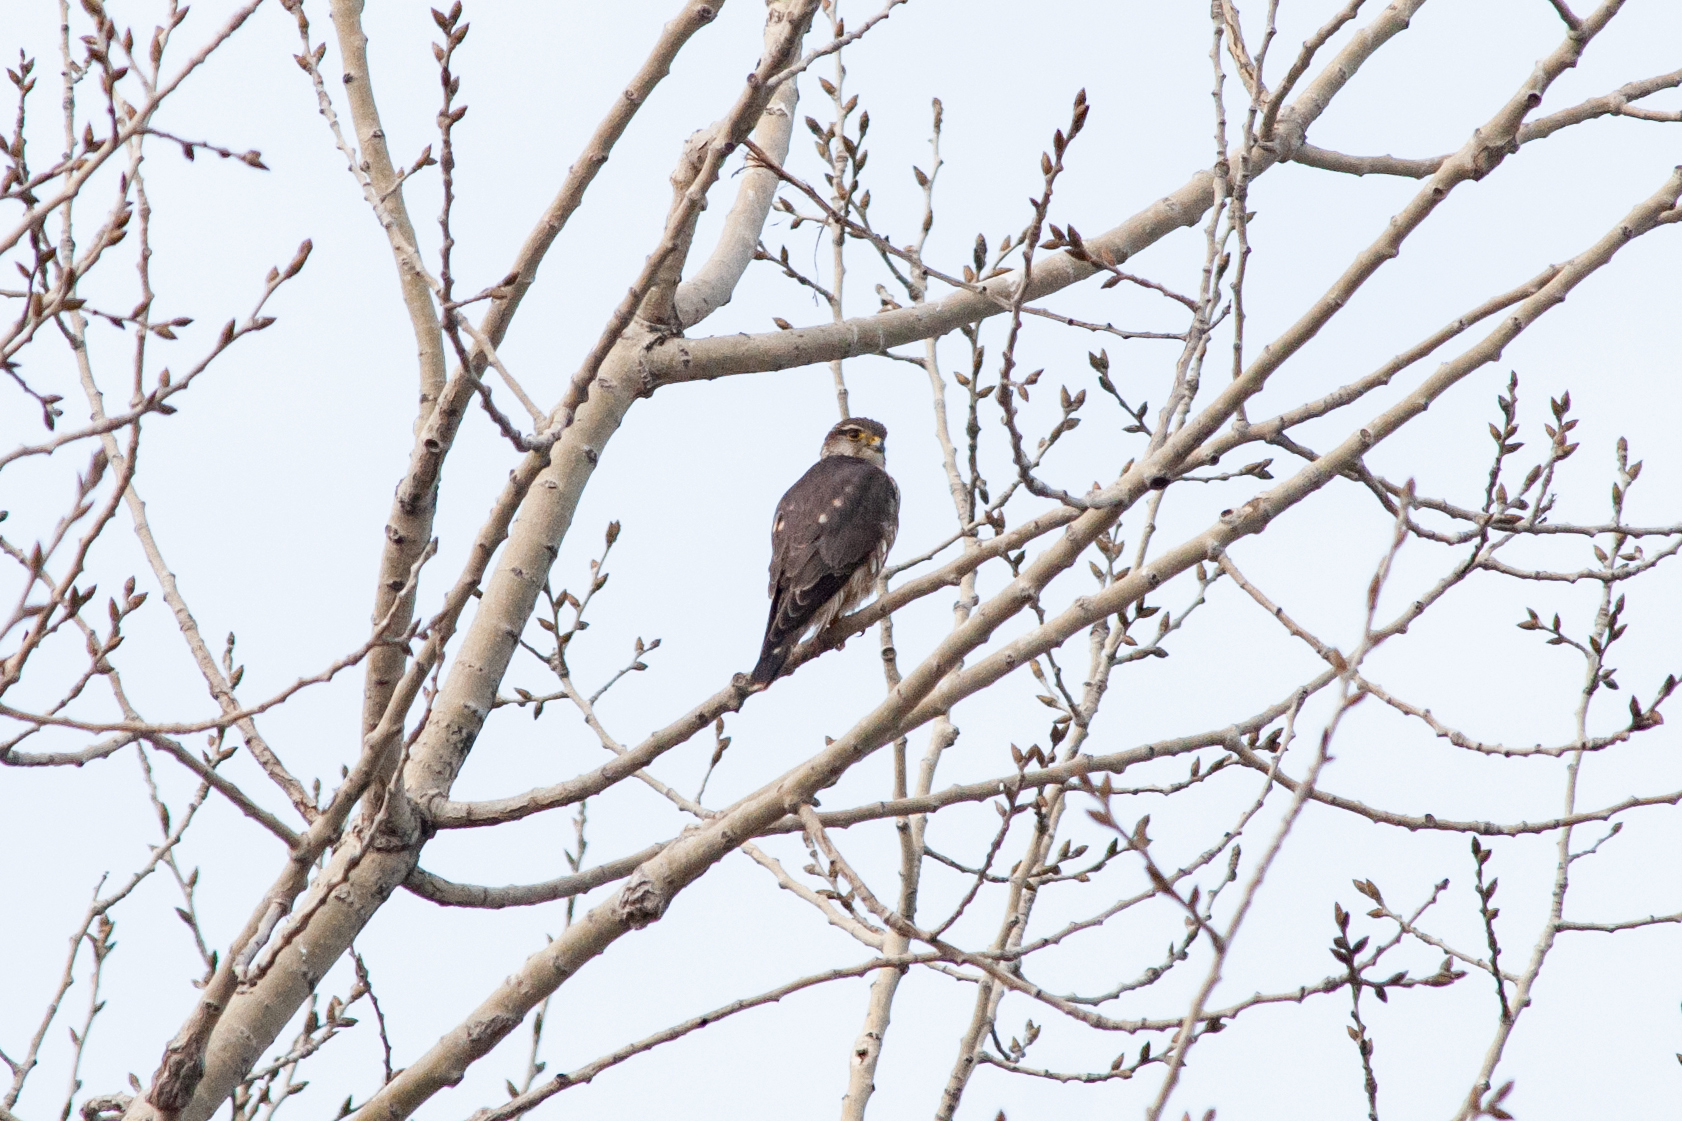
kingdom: Animalia
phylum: Chordata
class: Aves
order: Falconiformes
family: Falconidae
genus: Falco
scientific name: Falco columbarius
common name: Merlin
